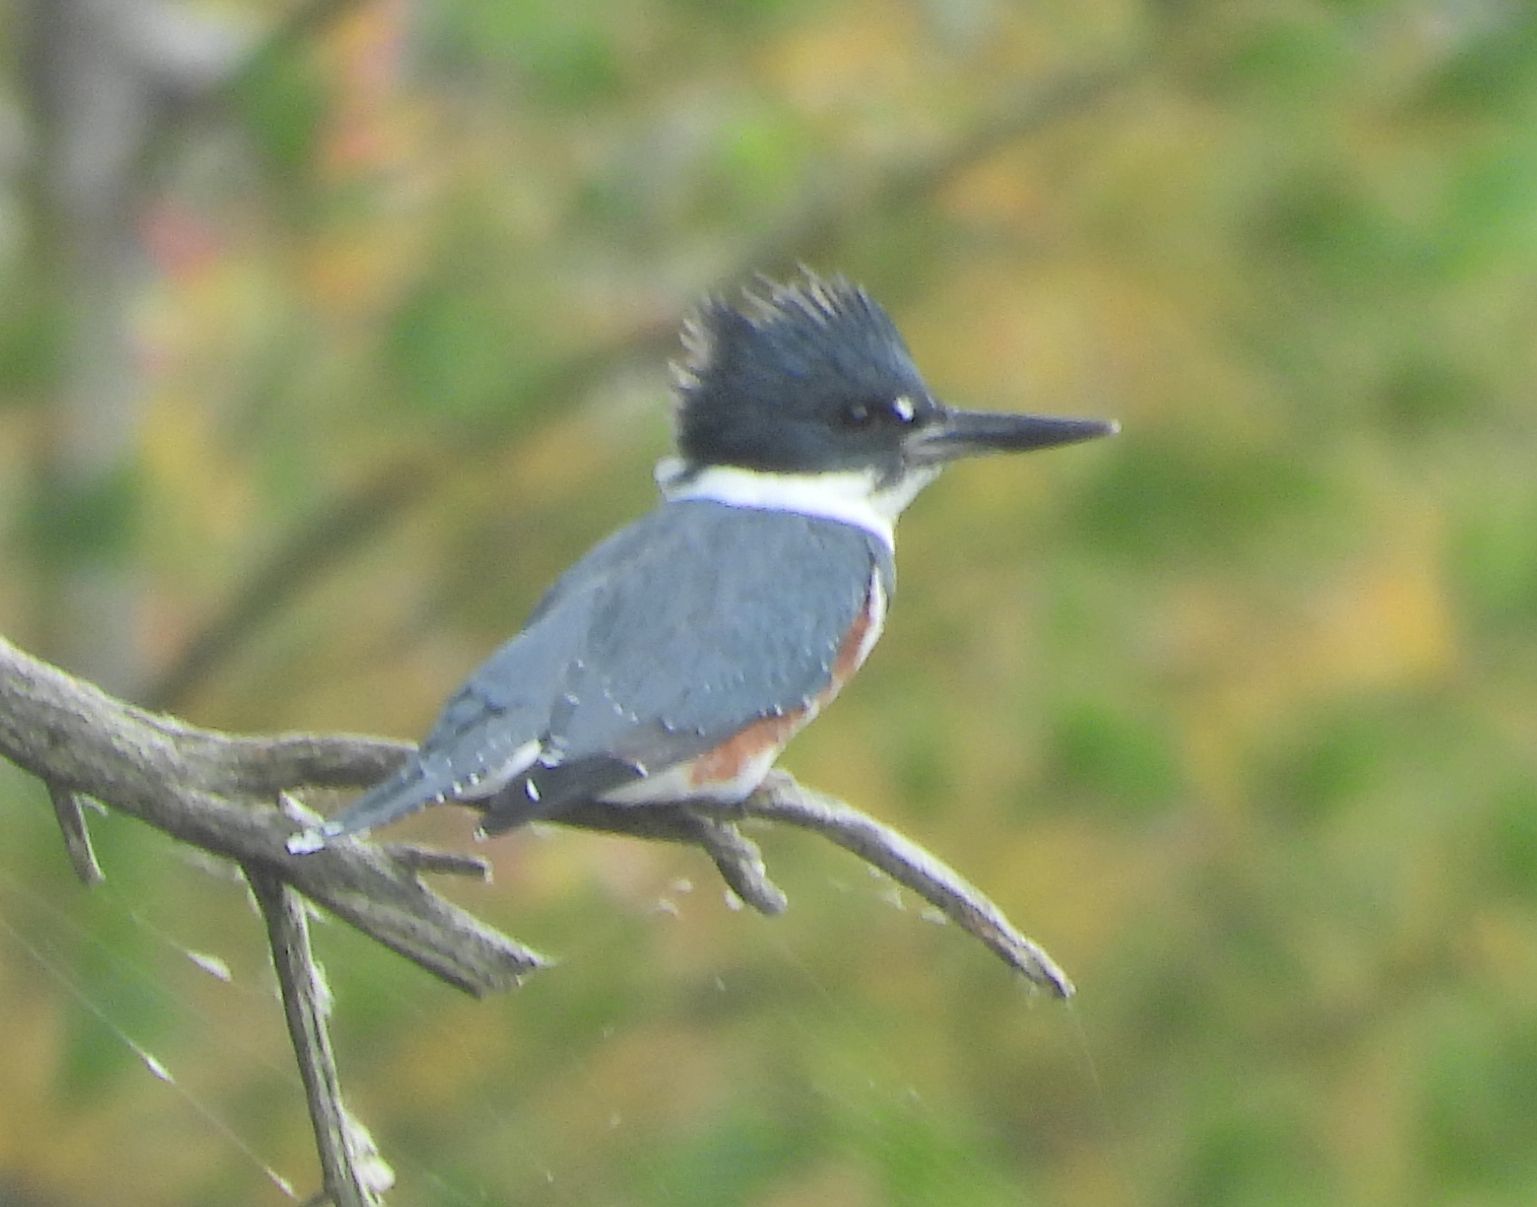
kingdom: Animalia
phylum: Chordata
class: Aves
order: Coraciiformes
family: Alcedinidae
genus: Megaceryle
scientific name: Megaceryle alcyon
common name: Belted kingfisher
